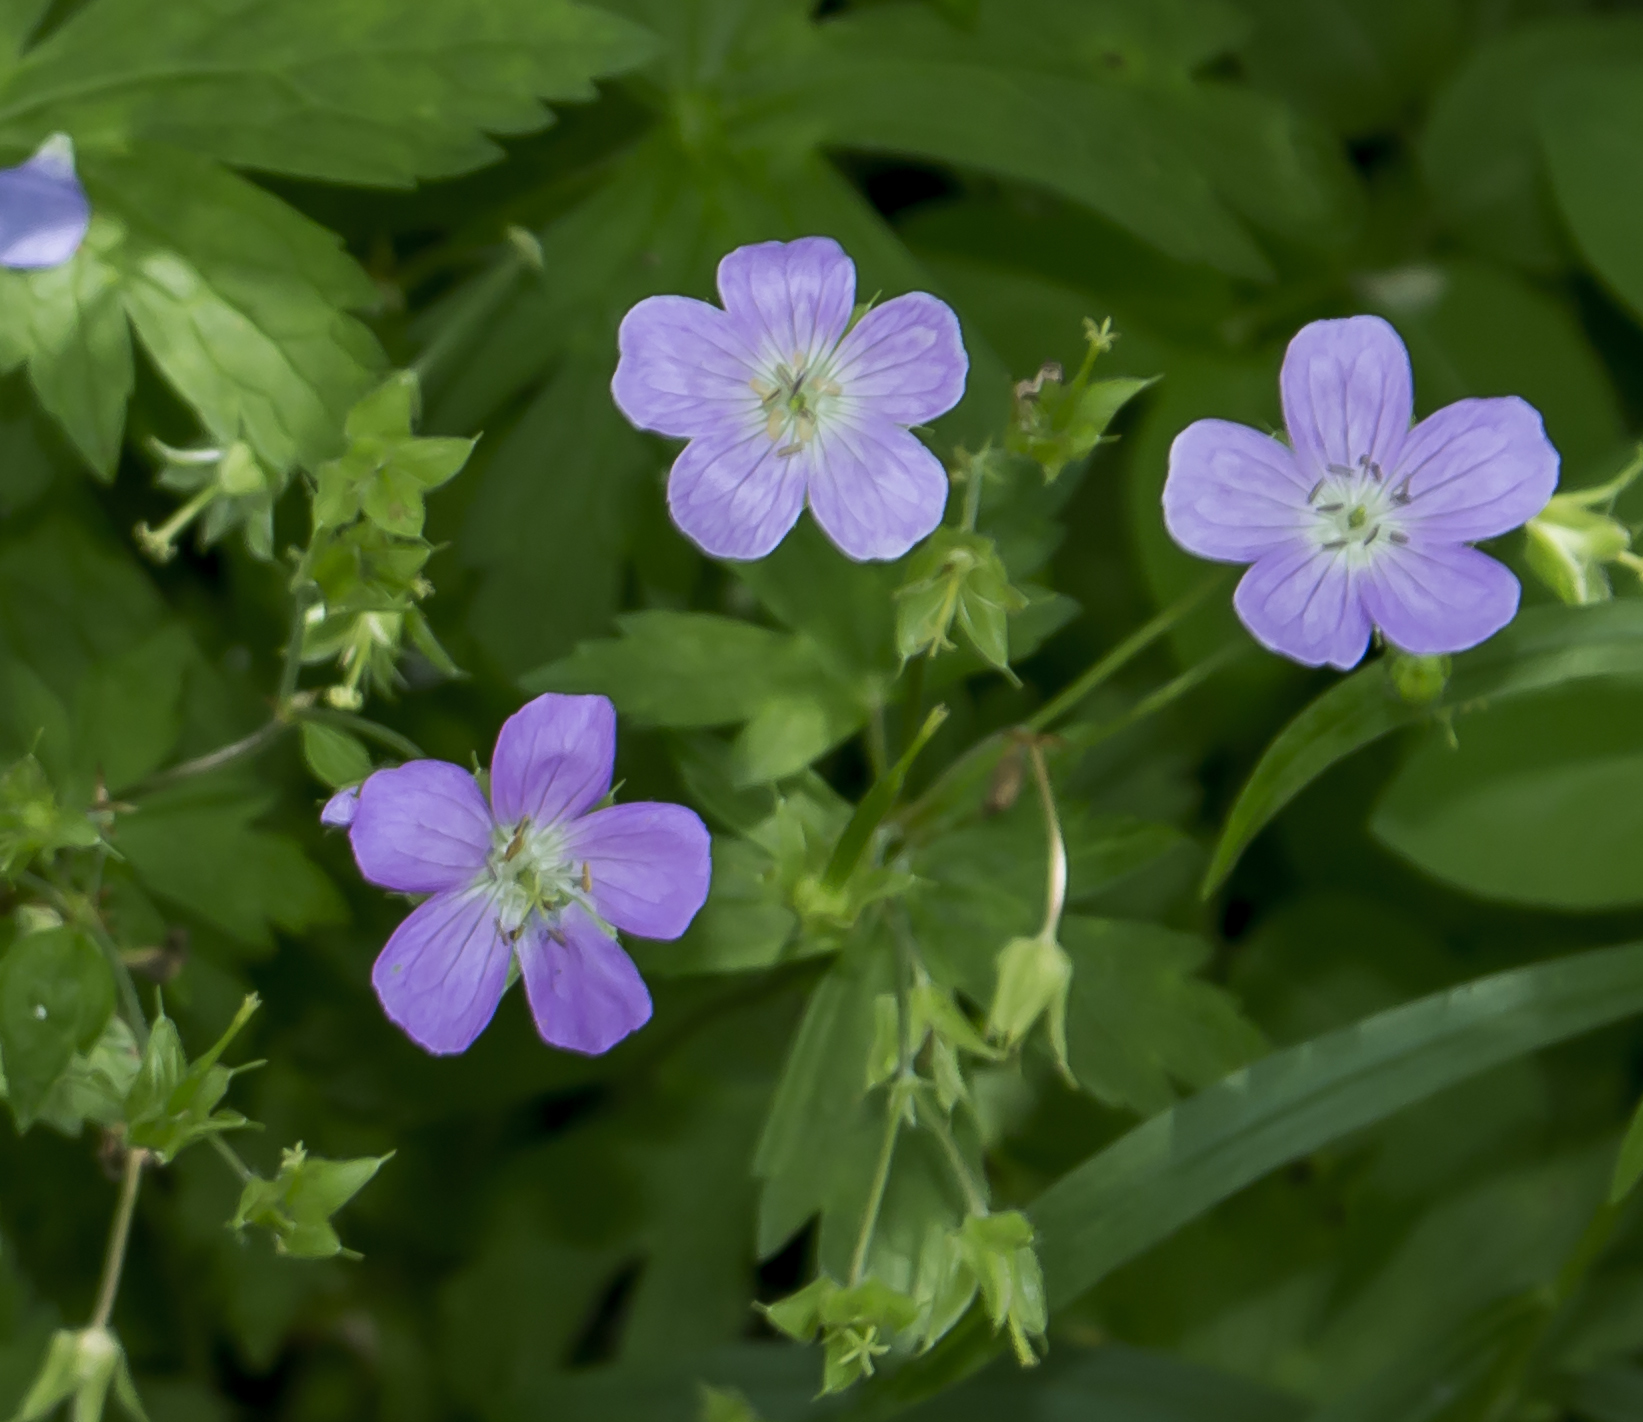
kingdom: Plantae
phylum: Tracheophyta
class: Magnoliopsida
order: Geraniales
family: Geraniaceae
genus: Geranium
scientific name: Geranium maculatum
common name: Spotted geranium
